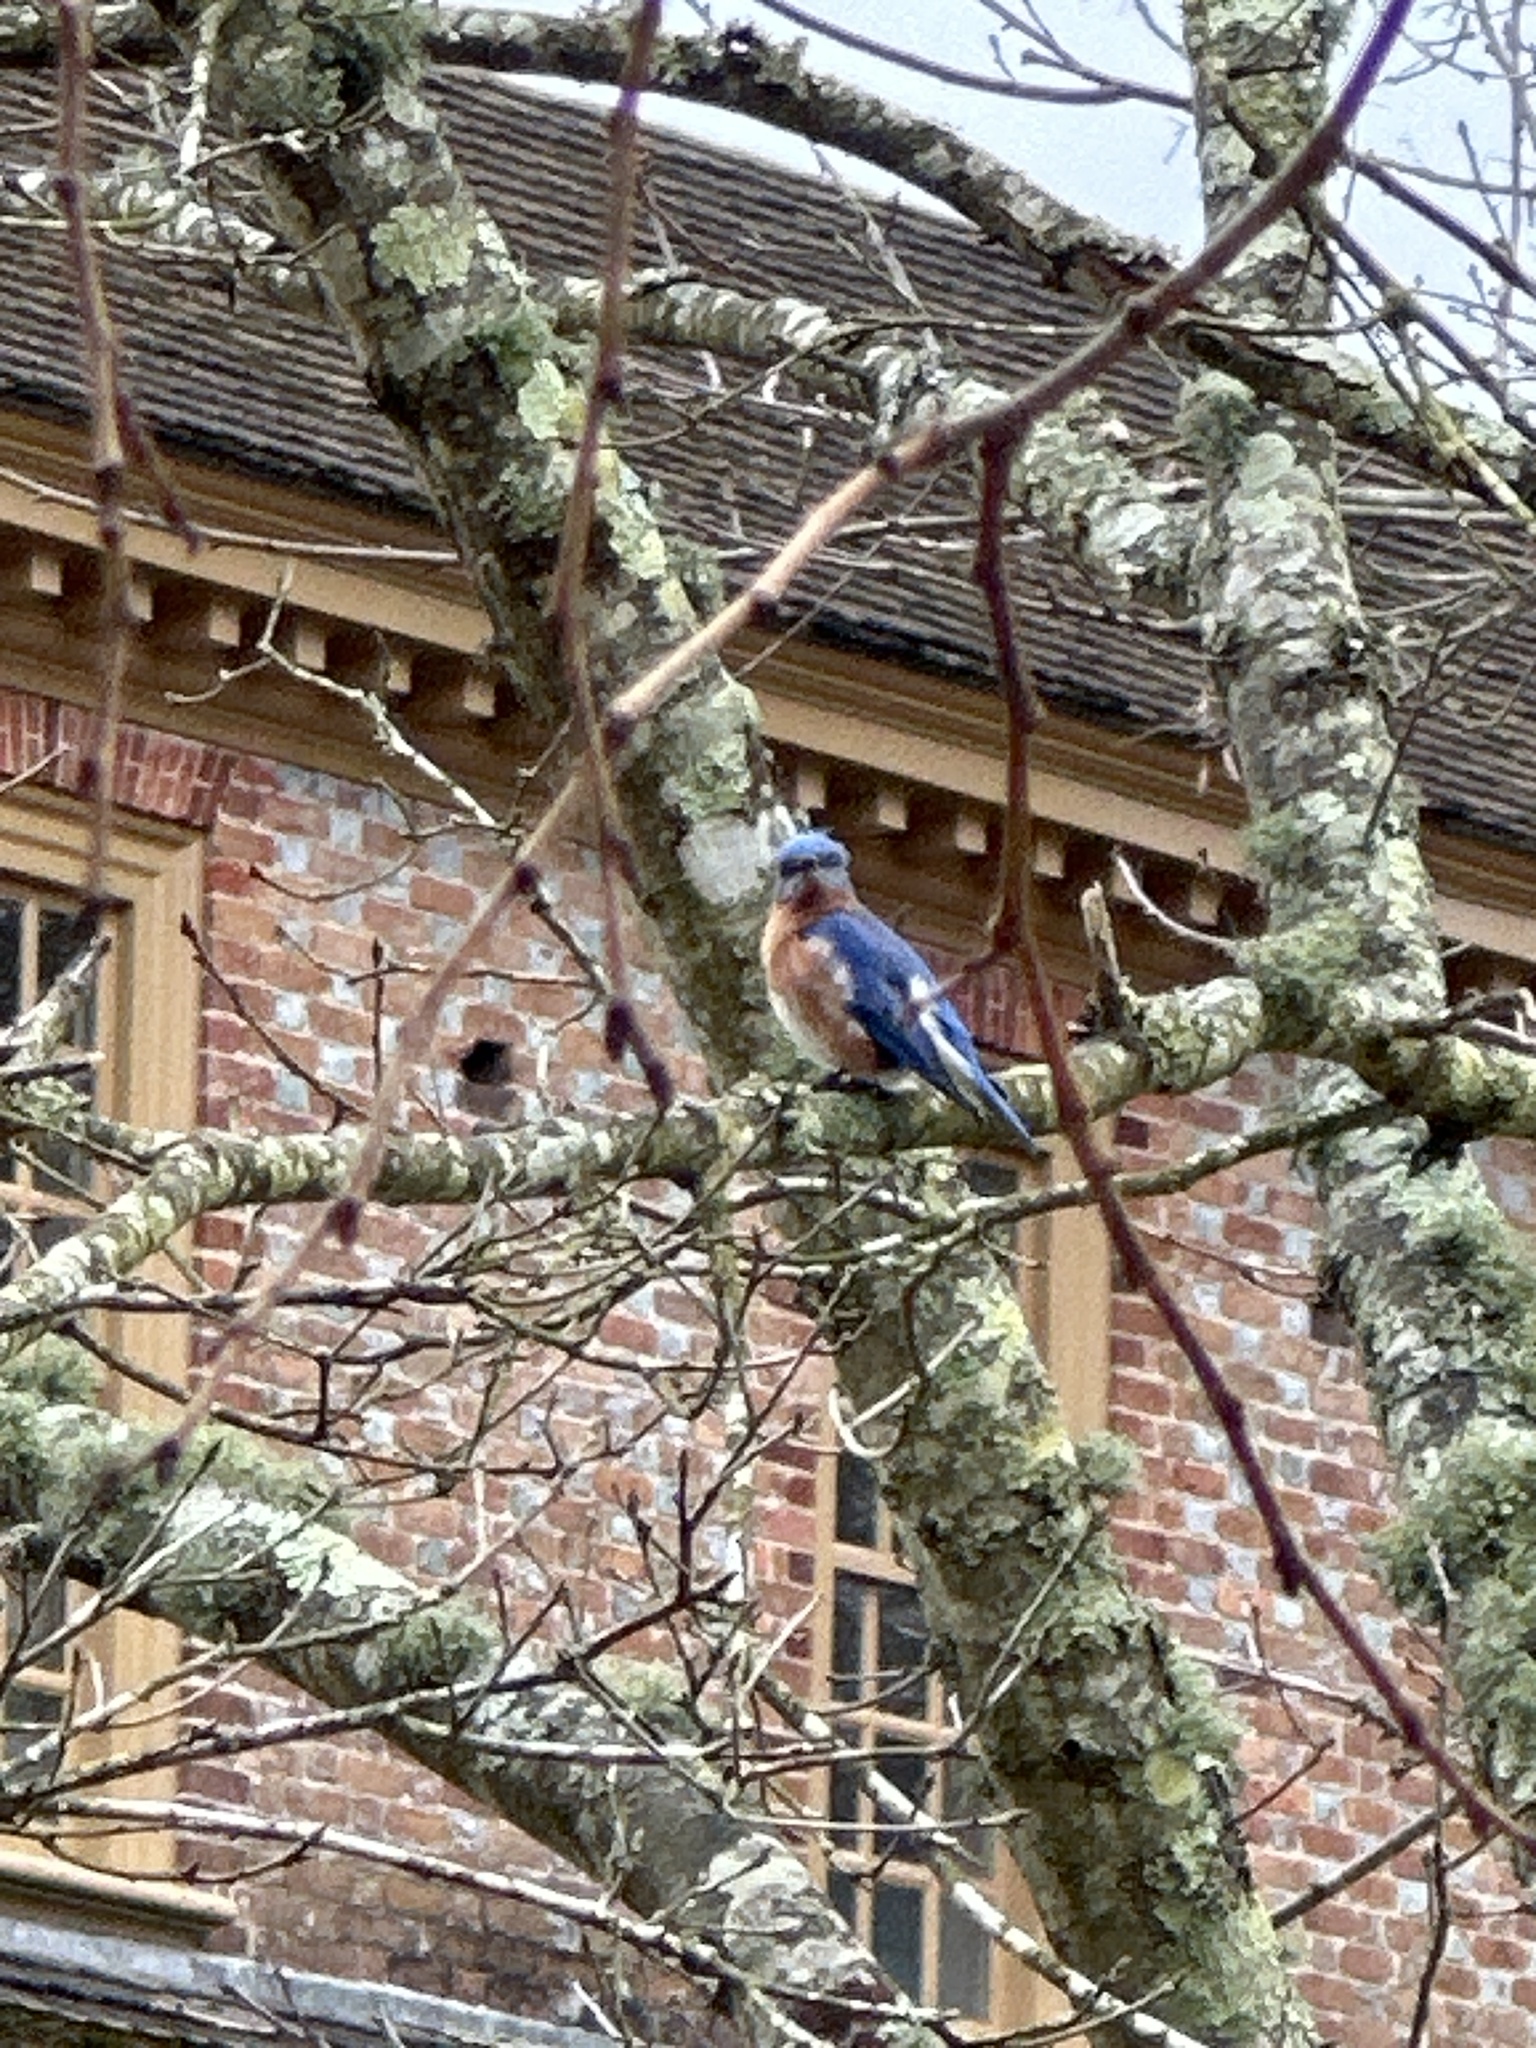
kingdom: Animalia
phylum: Chordata
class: Aves
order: Passeriformes
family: Turdidae
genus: Sialia
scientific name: Sialia sialis
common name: Eastern bluebird
